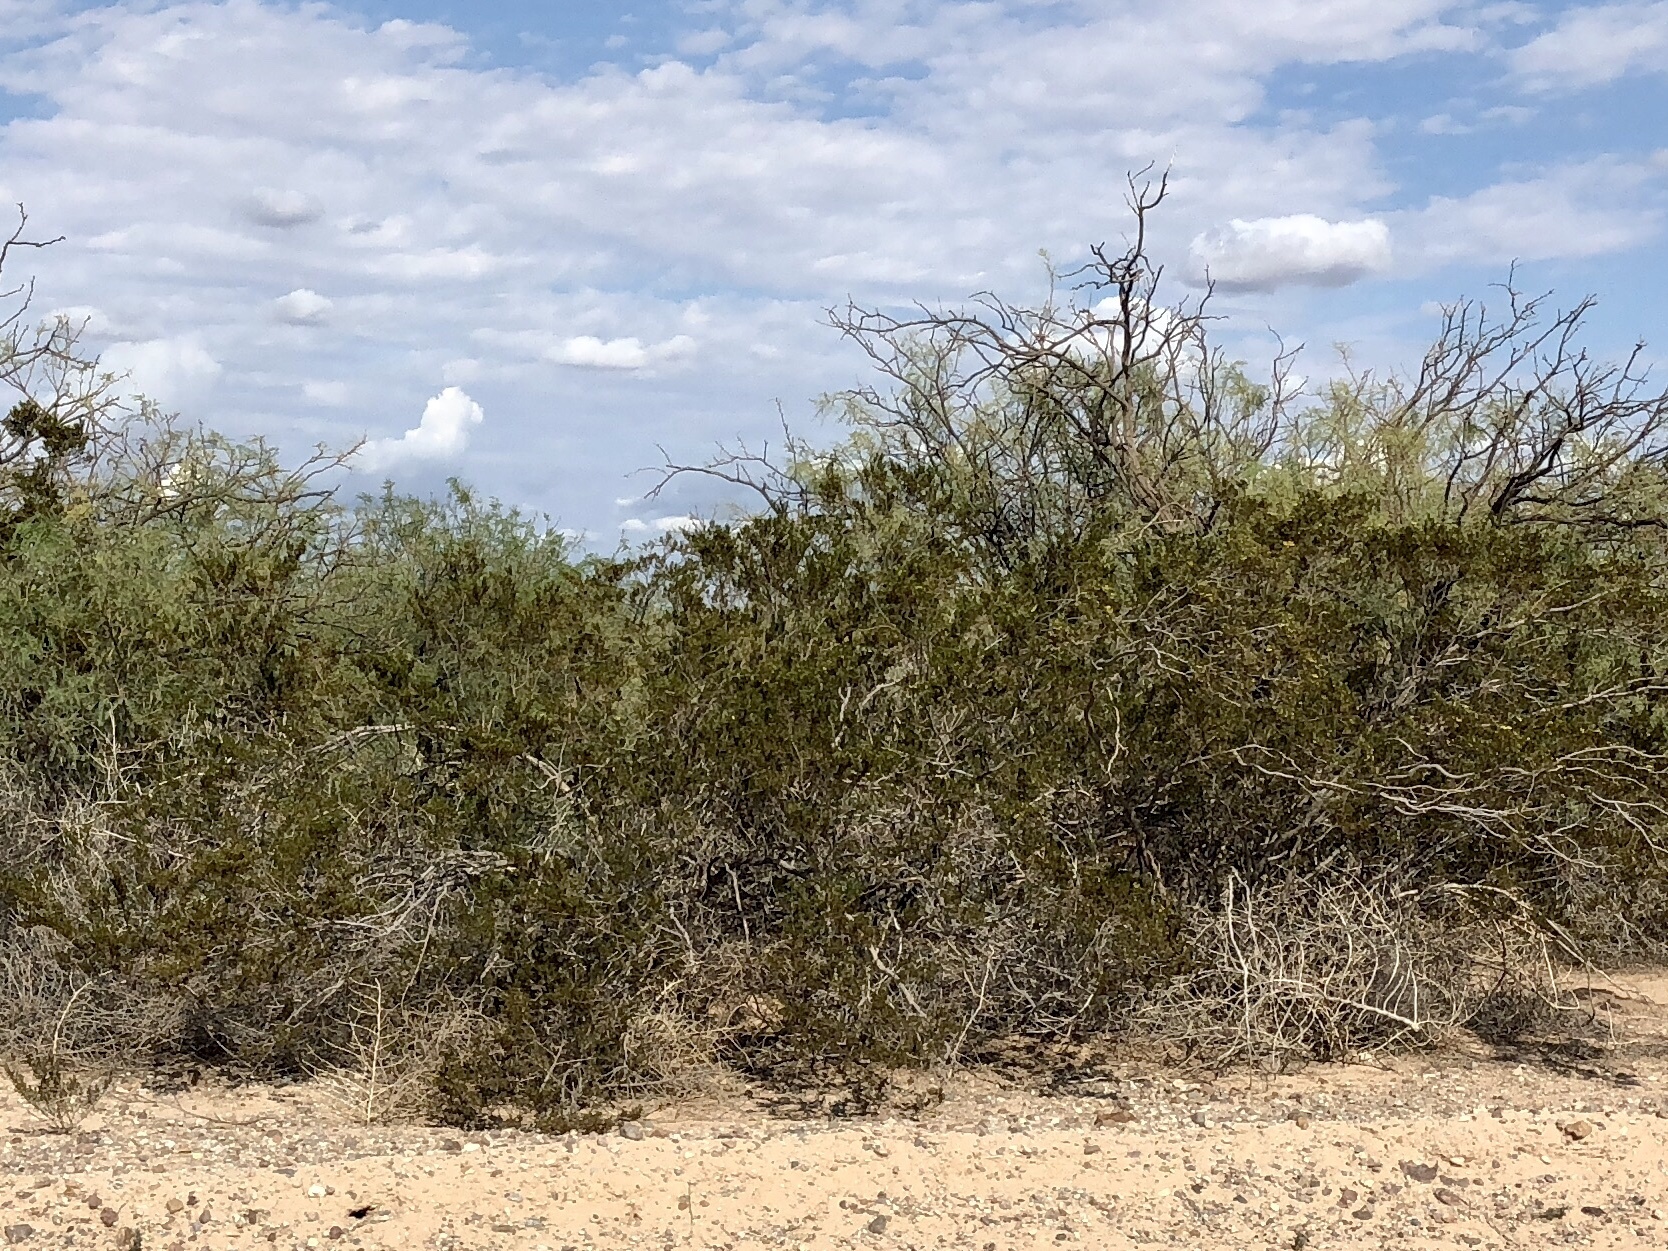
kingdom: Plantae
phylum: Tracheophyta
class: Magnoliopsida
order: Zygophyllales
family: Zygophyllaceae
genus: Larrea
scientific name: Larrea tridentata
